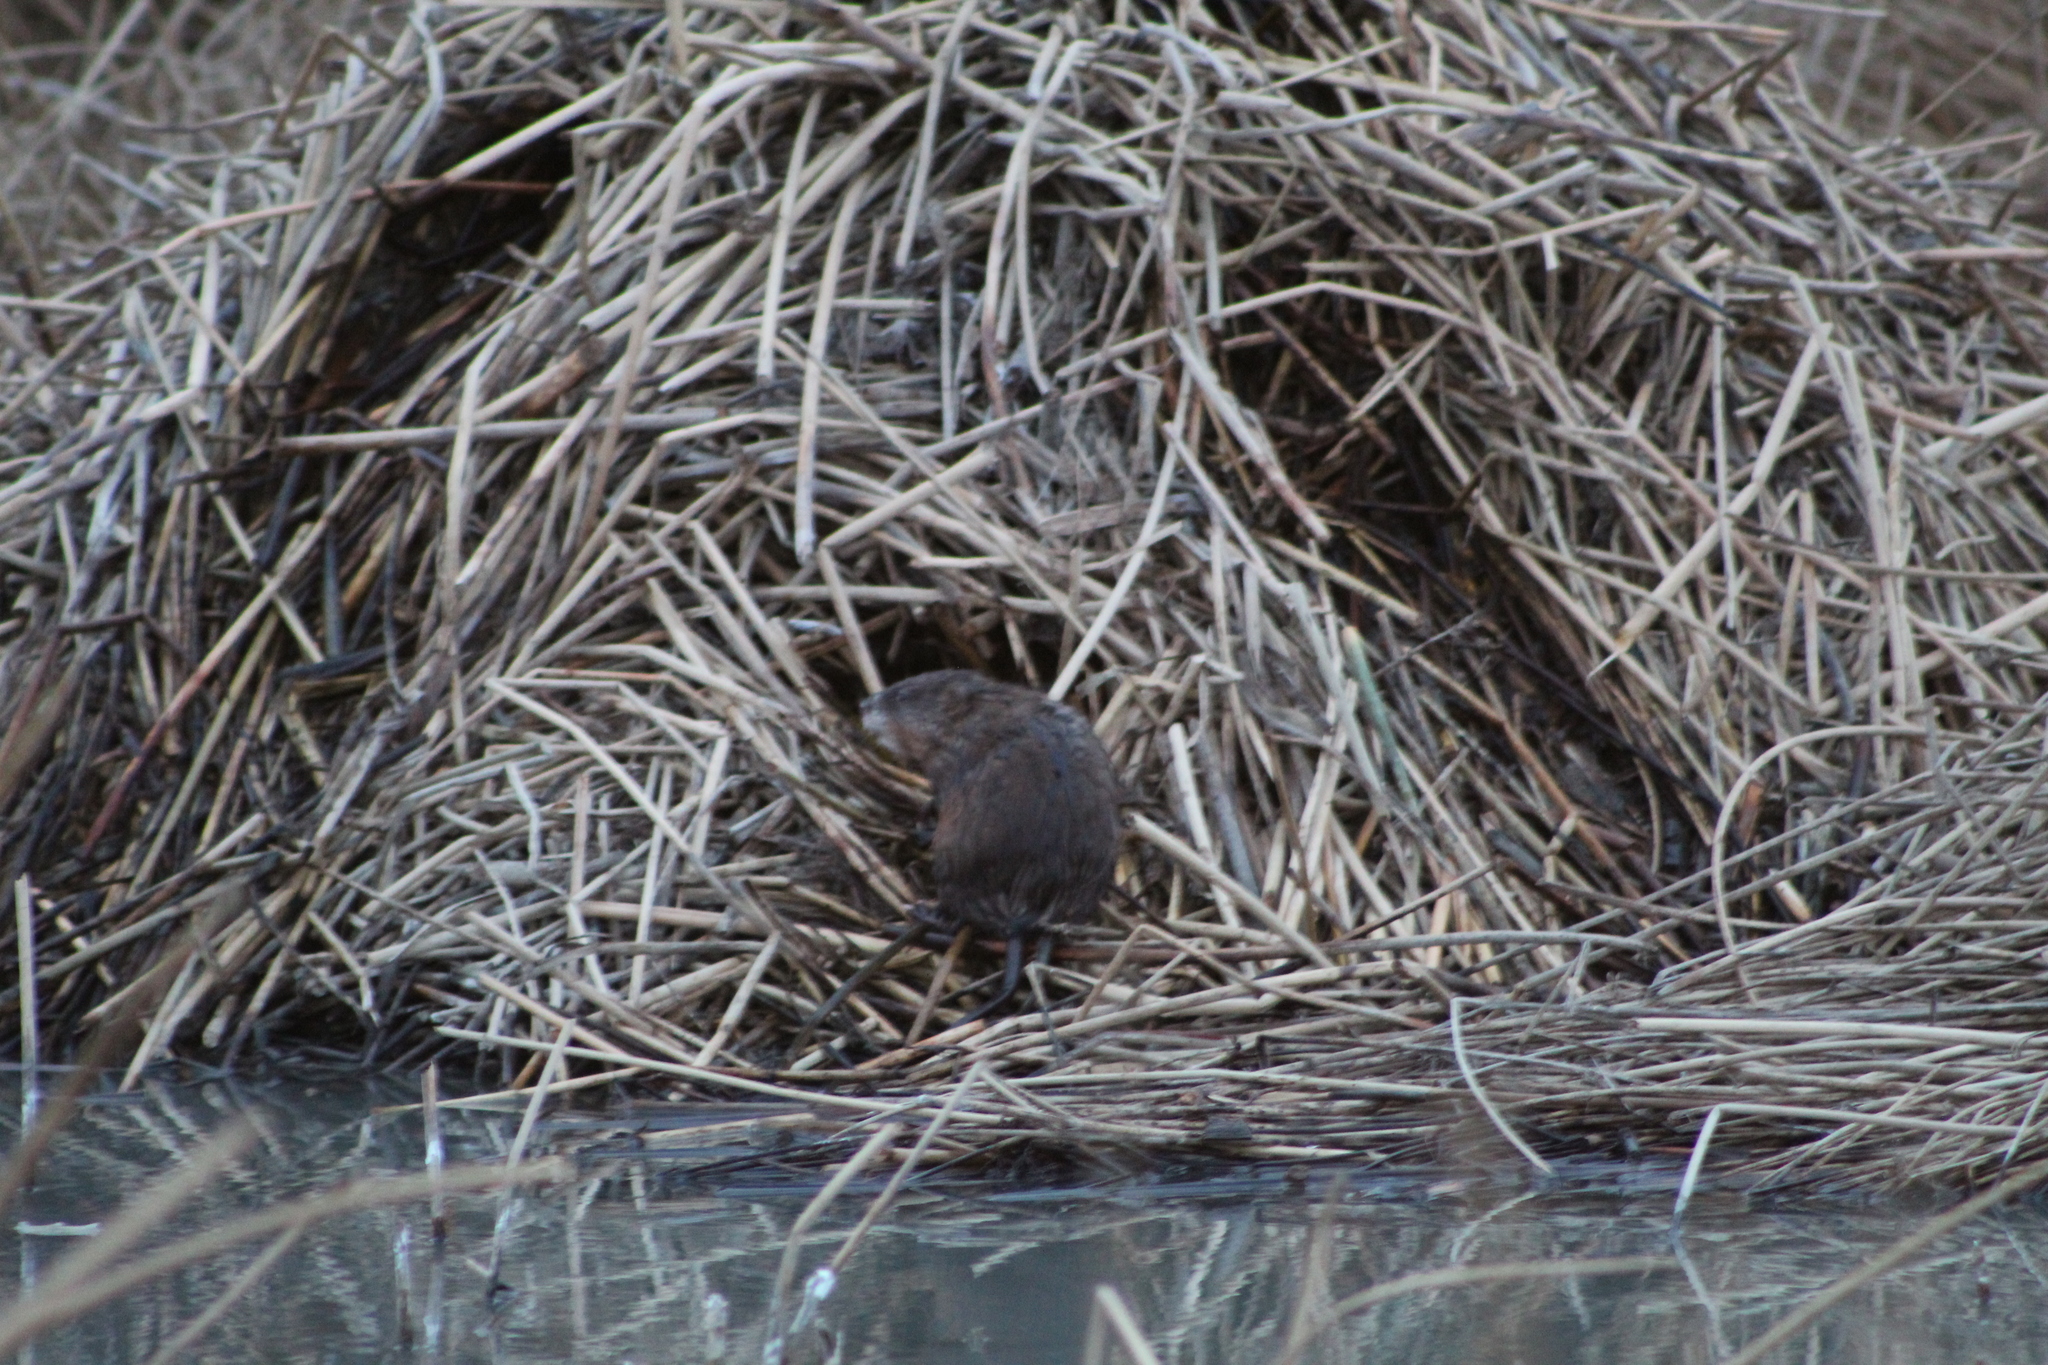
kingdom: Animalia
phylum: Chordata
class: Mammalia
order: Rodentia
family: Cricetidae
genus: Ondatra
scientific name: Ondatra zibethicus
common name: Muskrat
